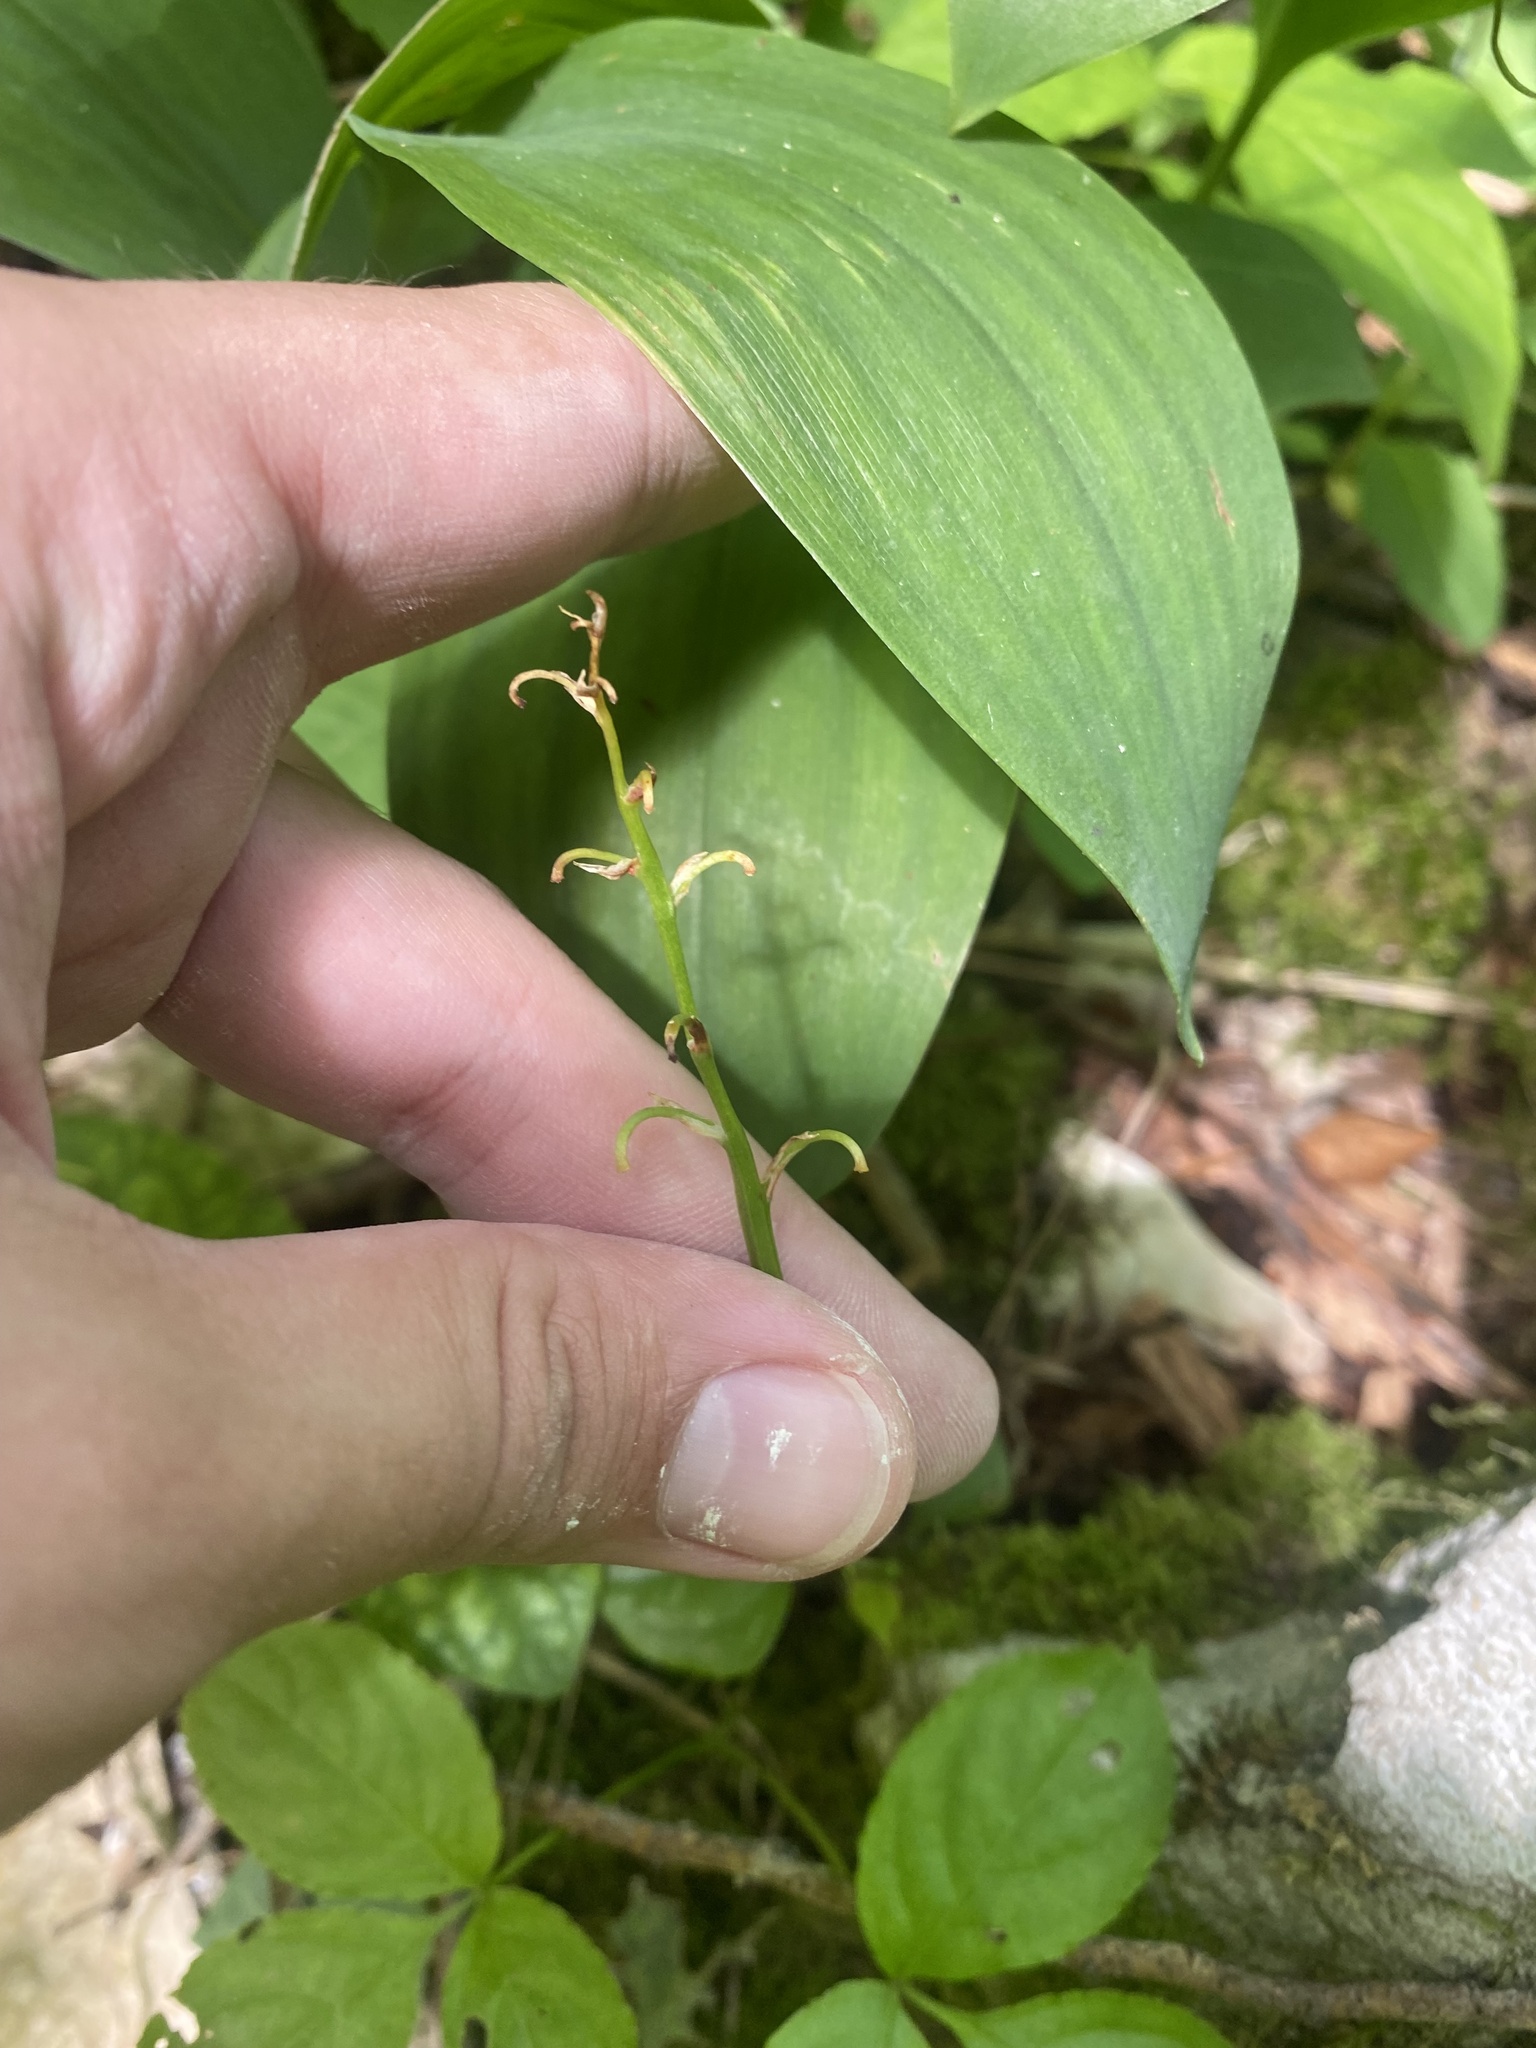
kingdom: Plantae
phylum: Tracheophyta
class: Liliopsida
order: Asparagales
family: Asparagaceae
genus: Convallaria
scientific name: Convallaria majalis
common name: Lily-of-the-valley
